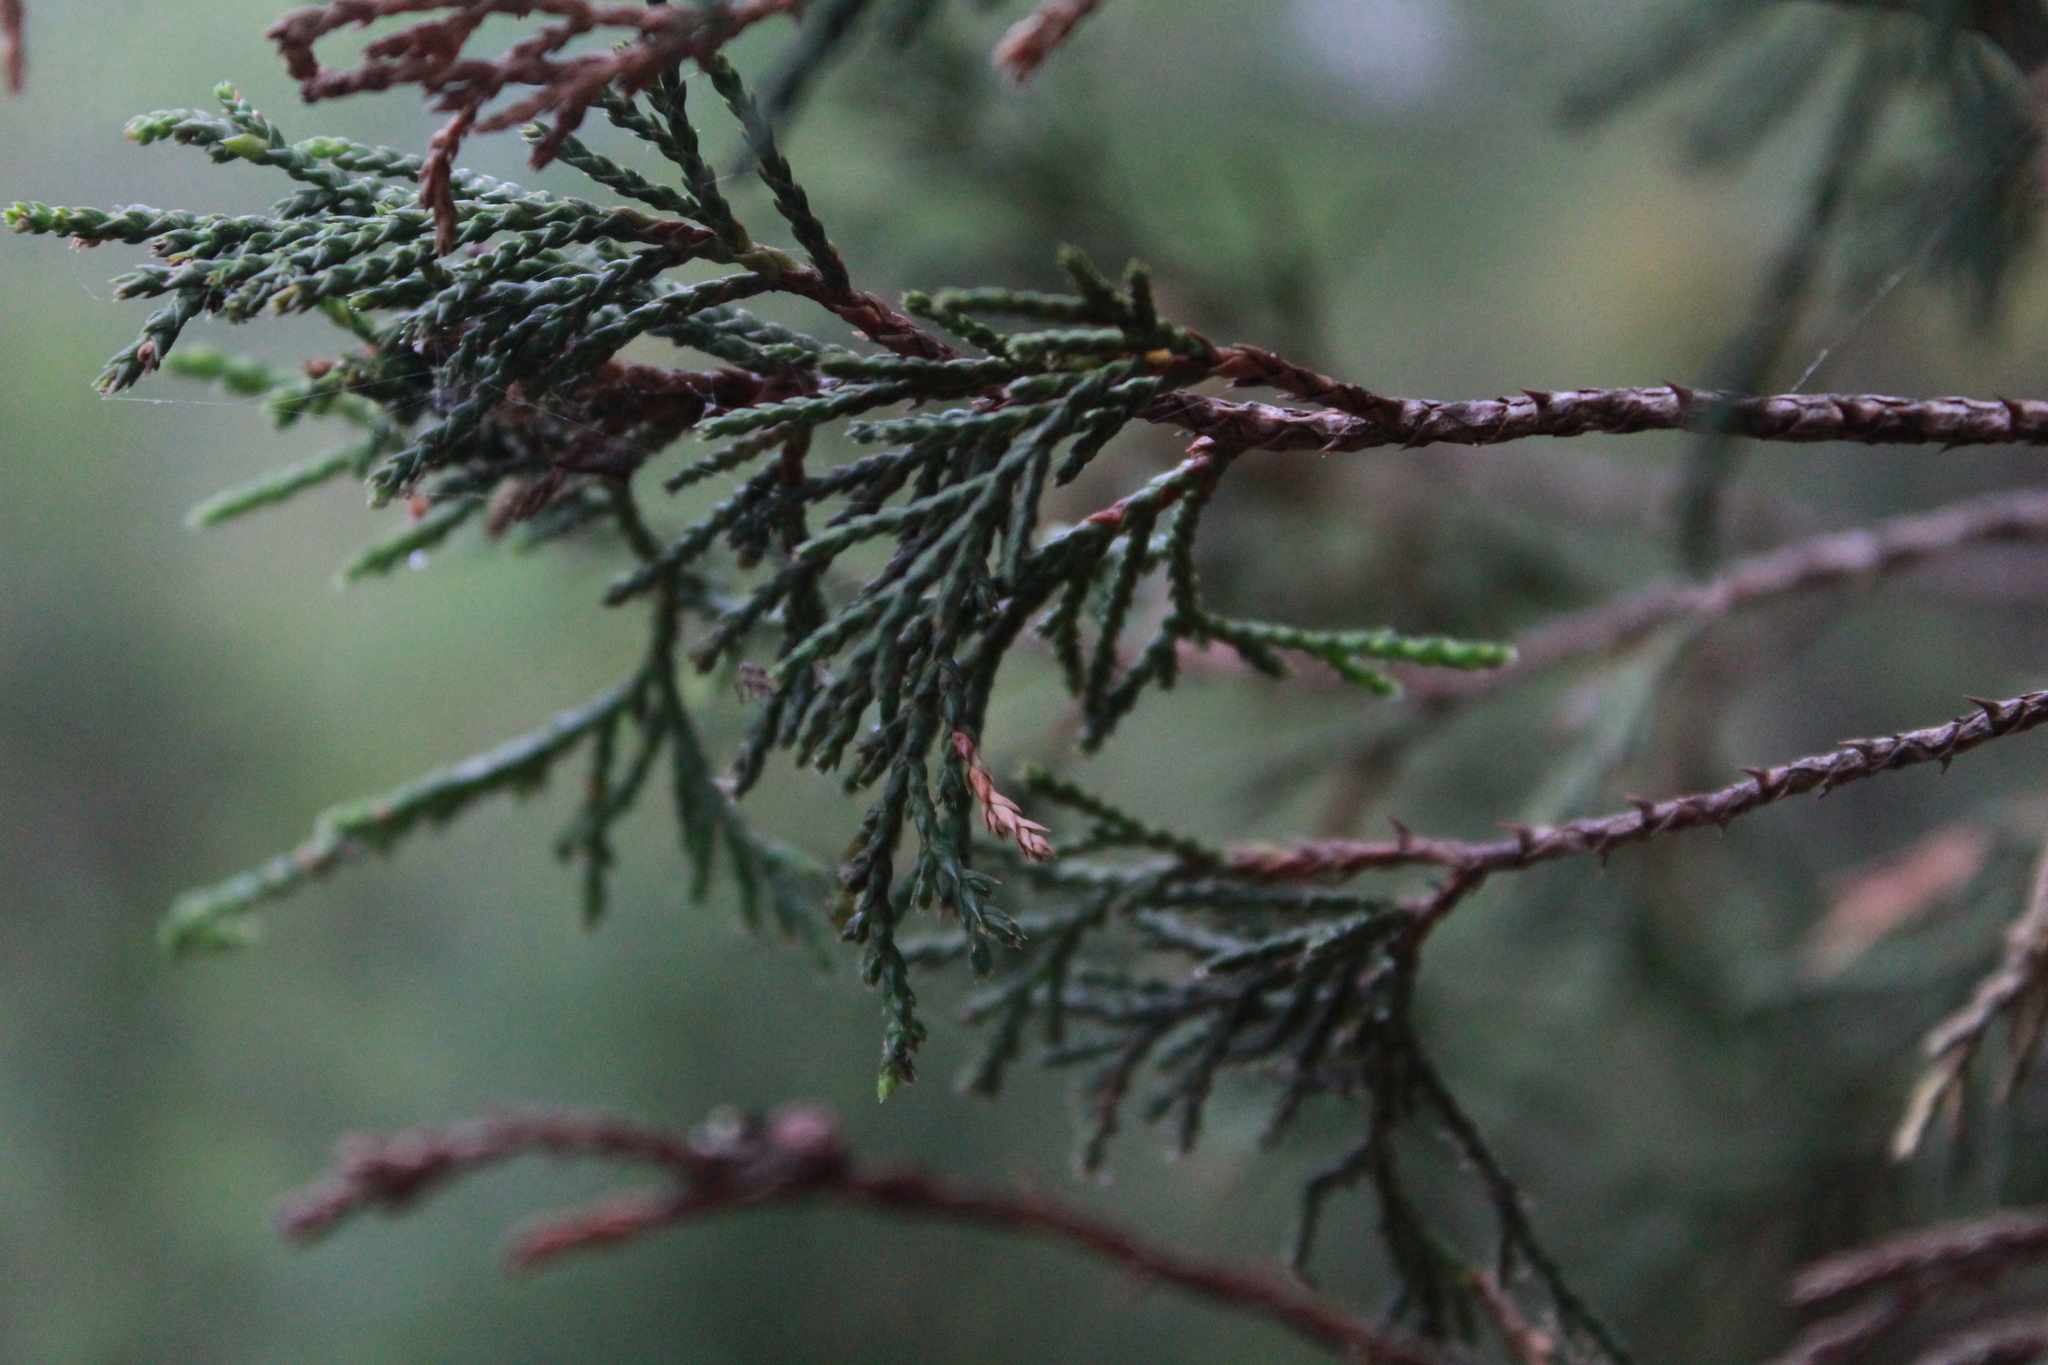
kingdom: Plantae
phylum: Tracheophyta
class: Pinopsida
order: Pinales
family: Cupressaceae
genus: Juniperus
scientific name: Juniperus flaccida
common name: Drooping juniper
